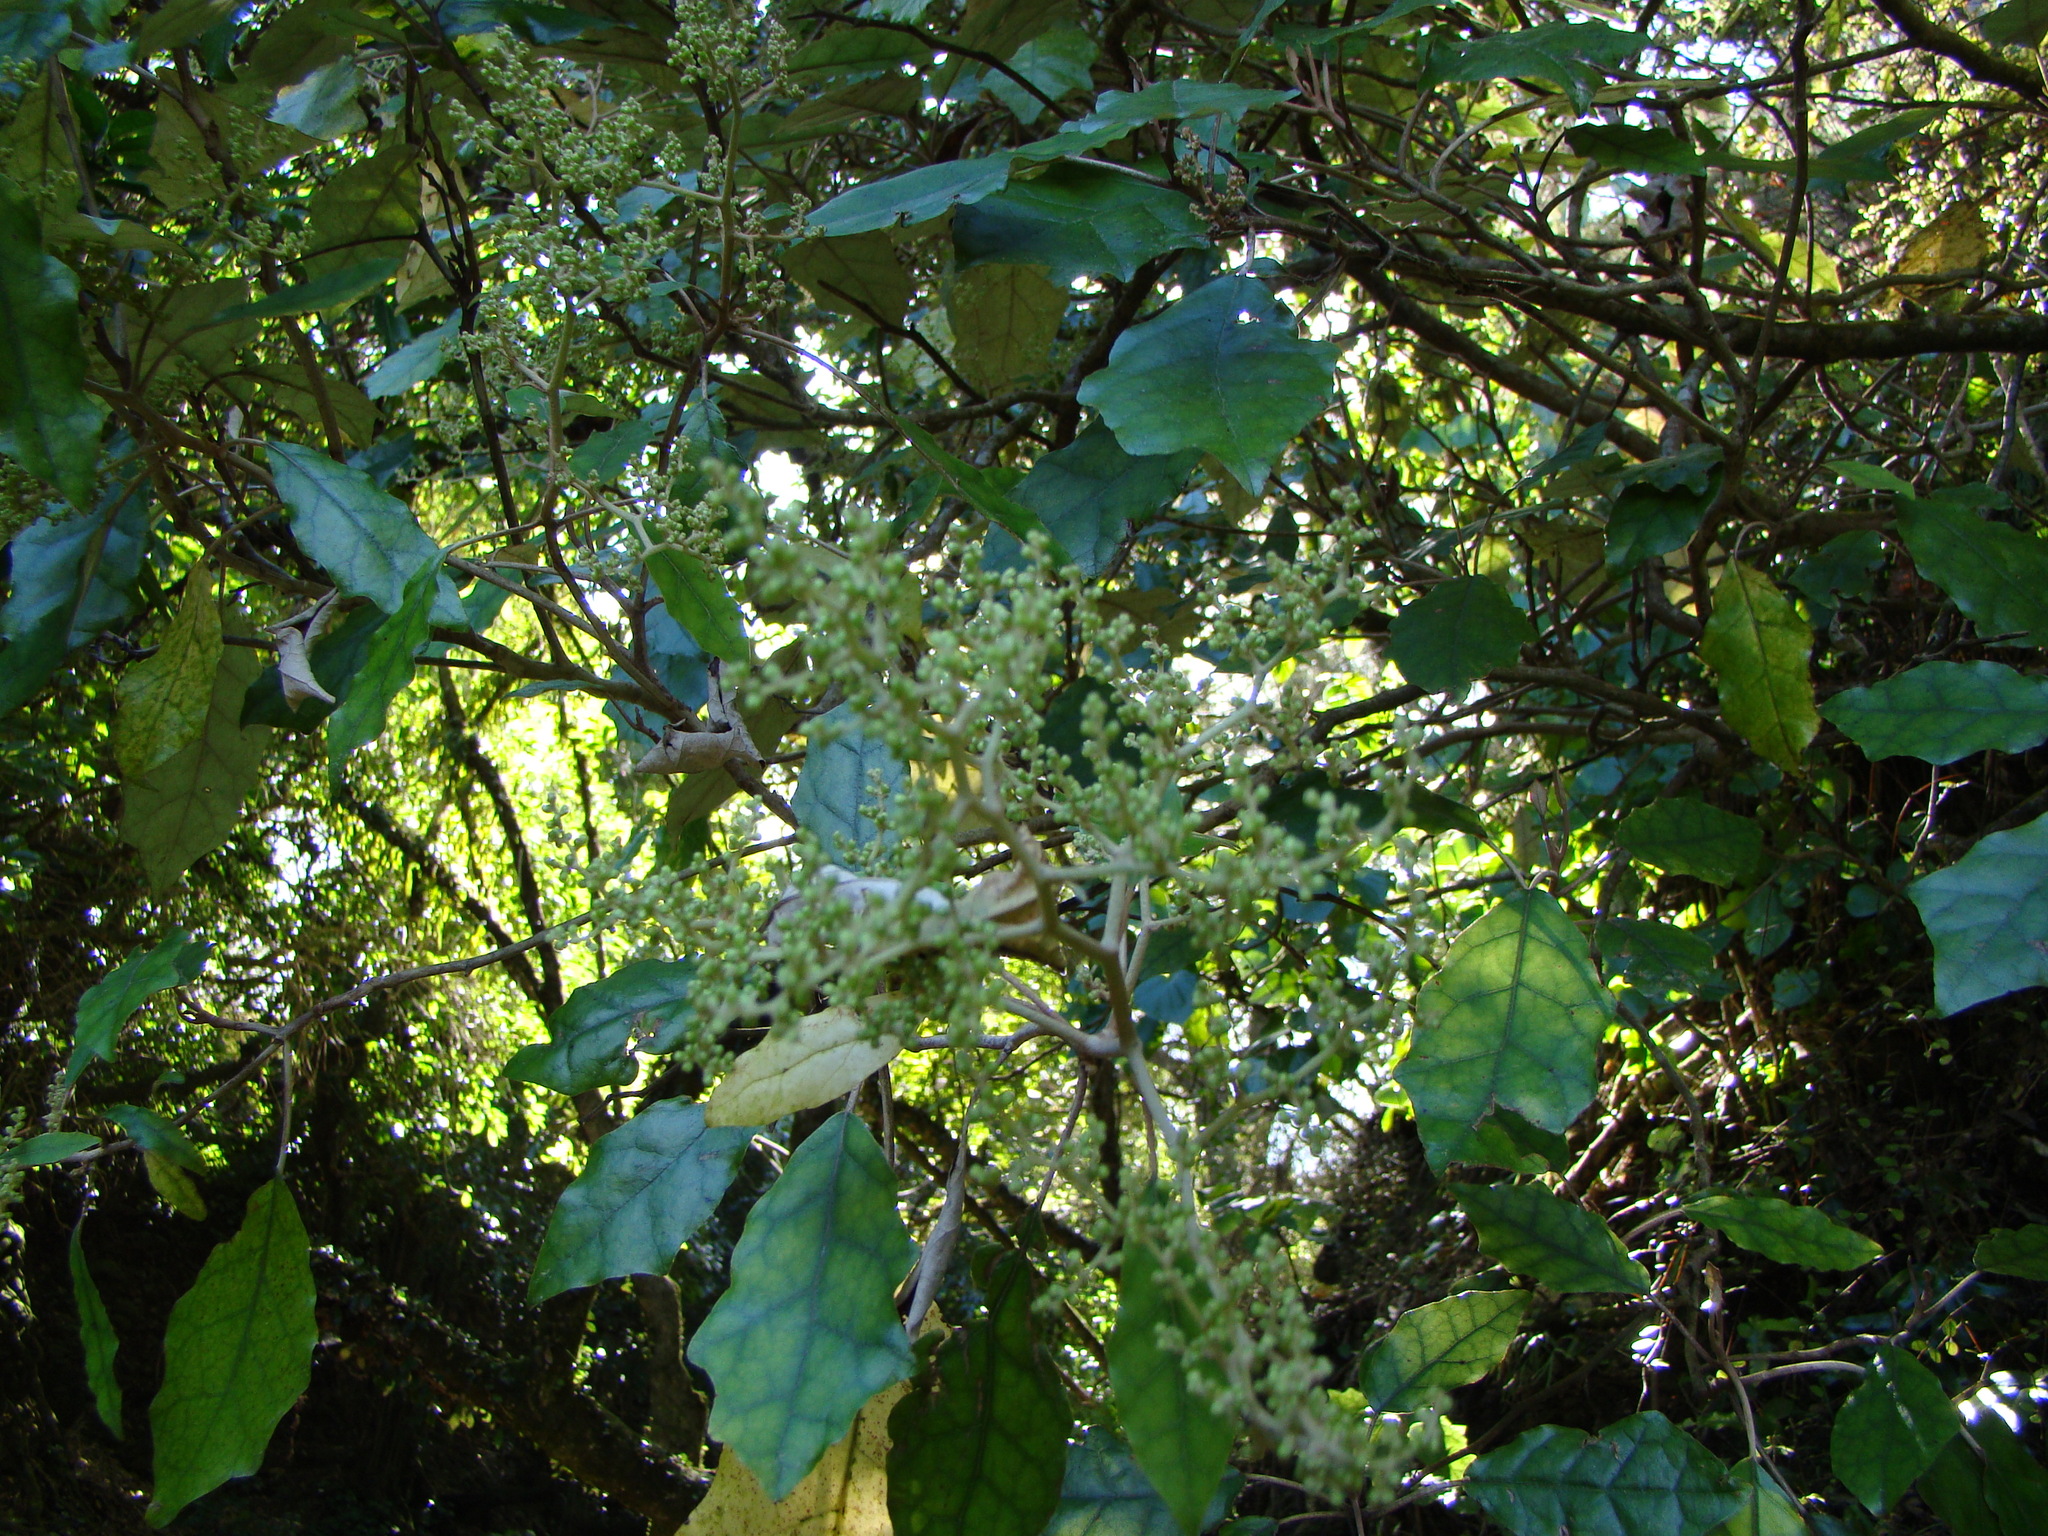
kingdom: Plantae
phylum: Tracheophyta
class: Magnoliopsida
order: Asterales
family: Asteraceae
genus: Brachyglottis
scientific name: Brachyglottis repanda
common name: Hedge ragwort
